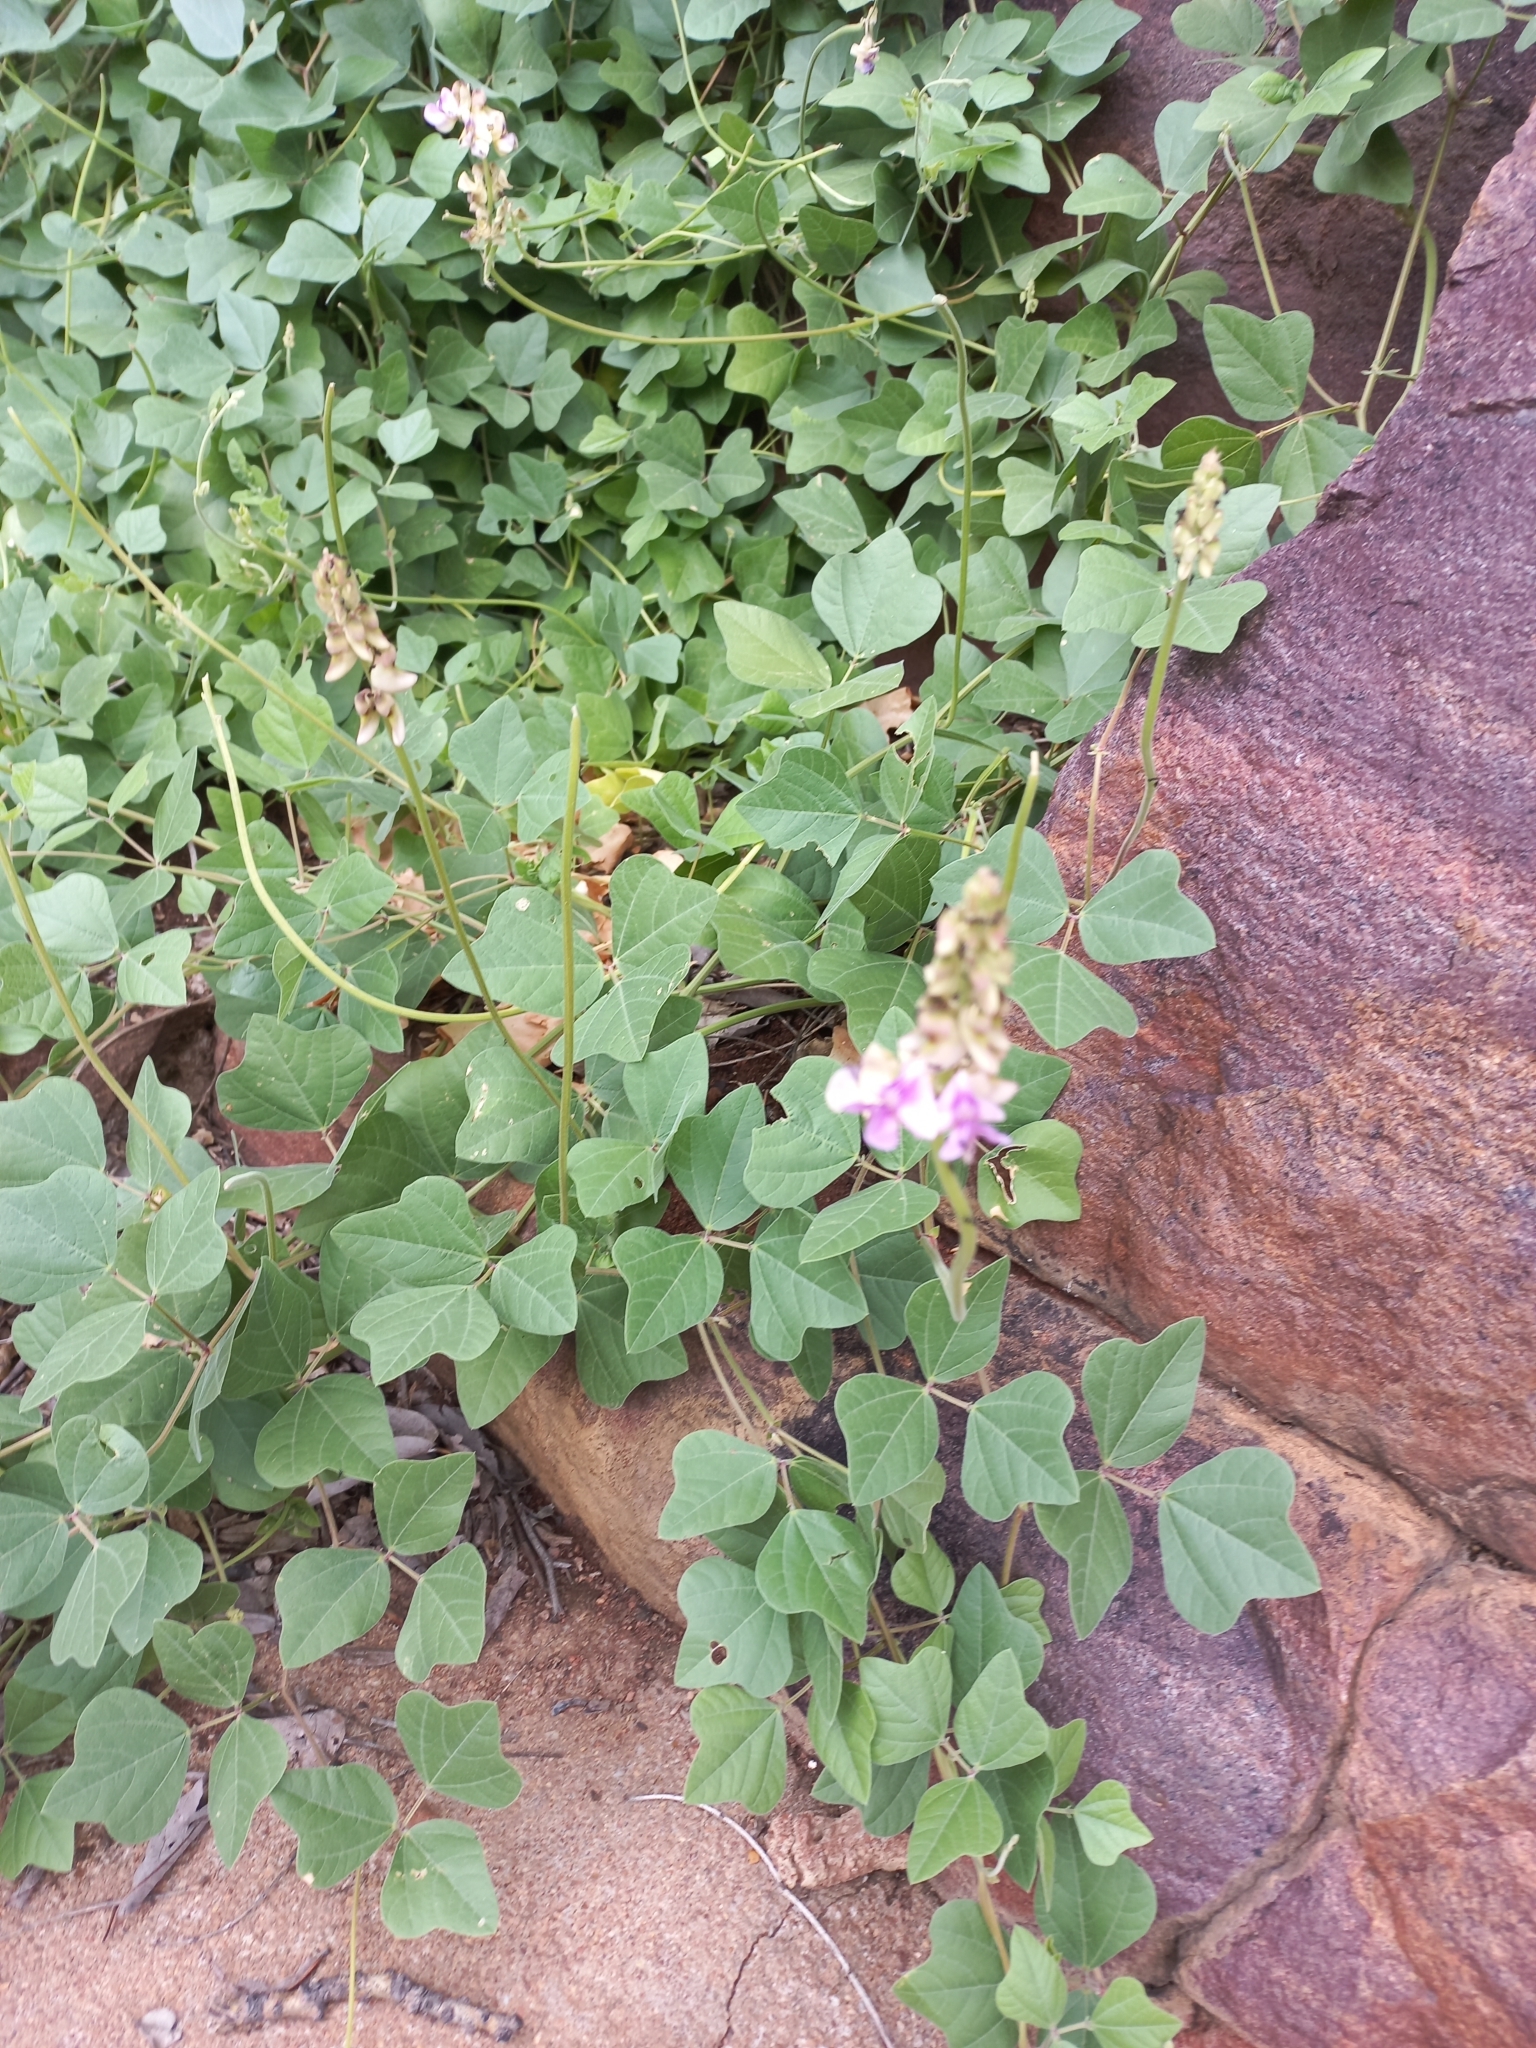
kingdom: Plantae
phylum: Tracheophyta
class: Magnoliopsida
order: Fabales
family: Fabaceae
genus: Vigna
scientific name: Vigna frutescens
